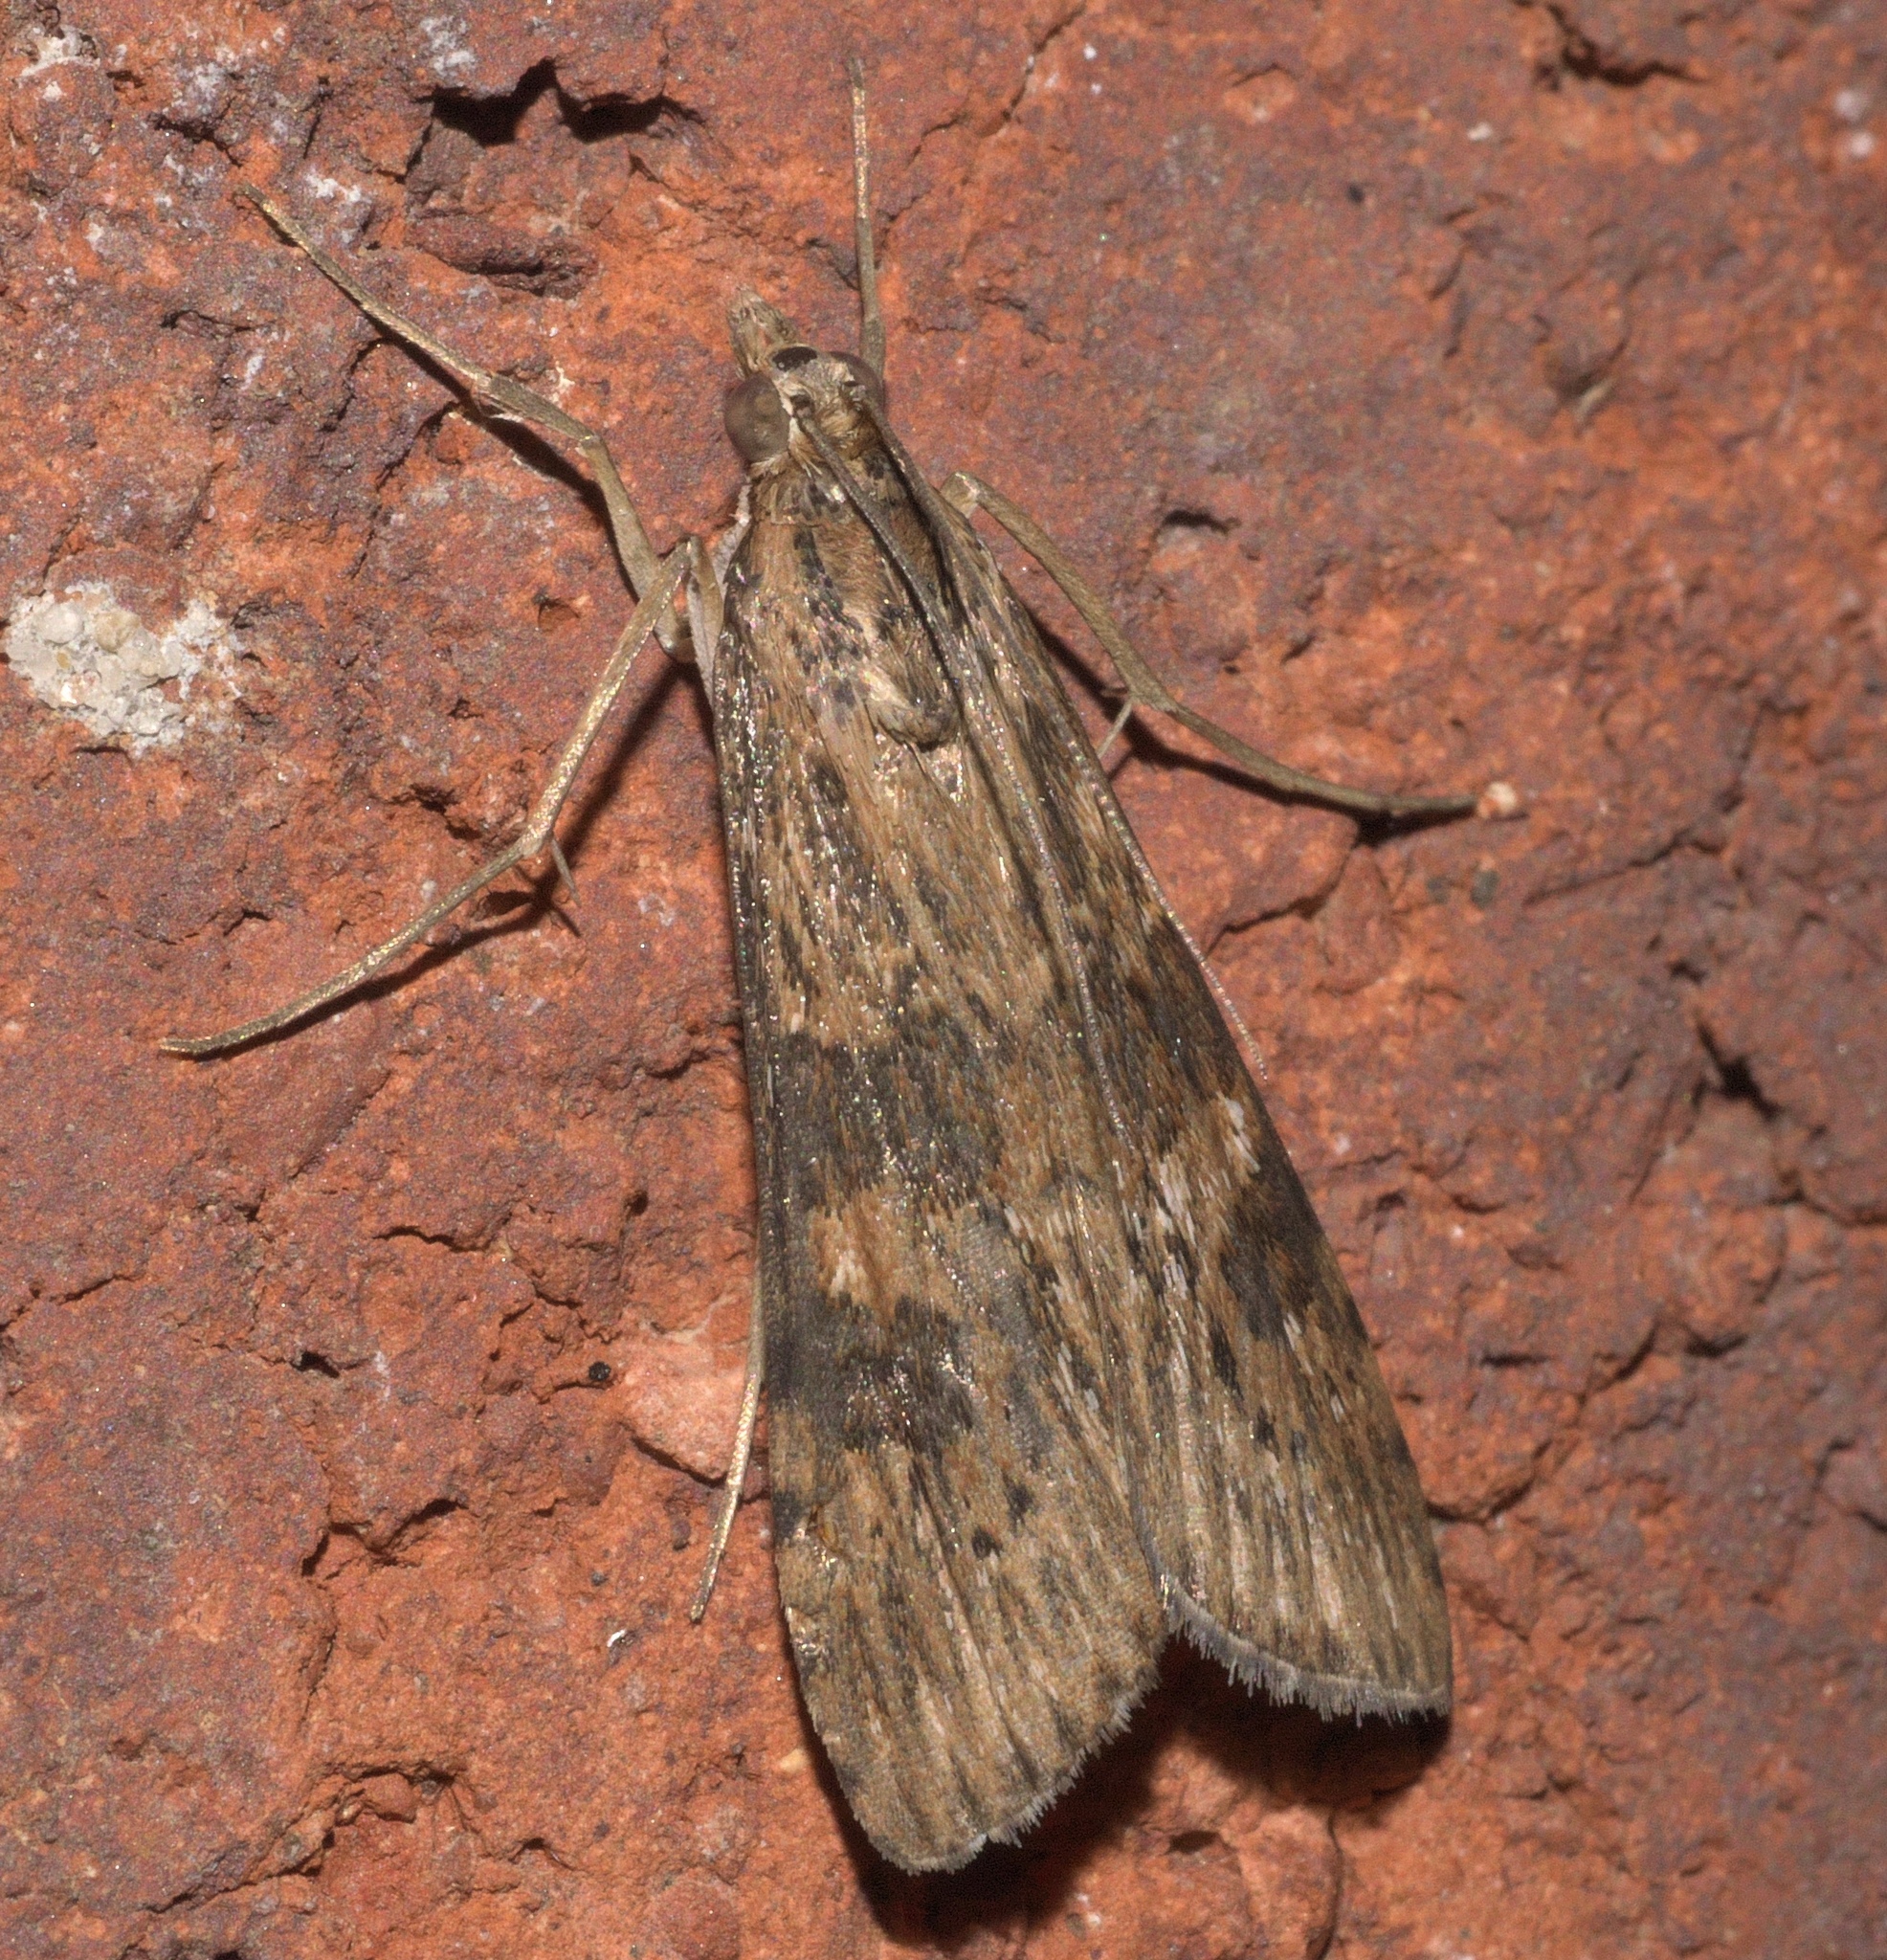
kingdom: Animalia
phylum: Arthropoda
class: Insecta
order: Lepidoptera
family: Crambidae
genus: Nomophila
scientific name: Nomophila nearctica
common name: American rush veneer
